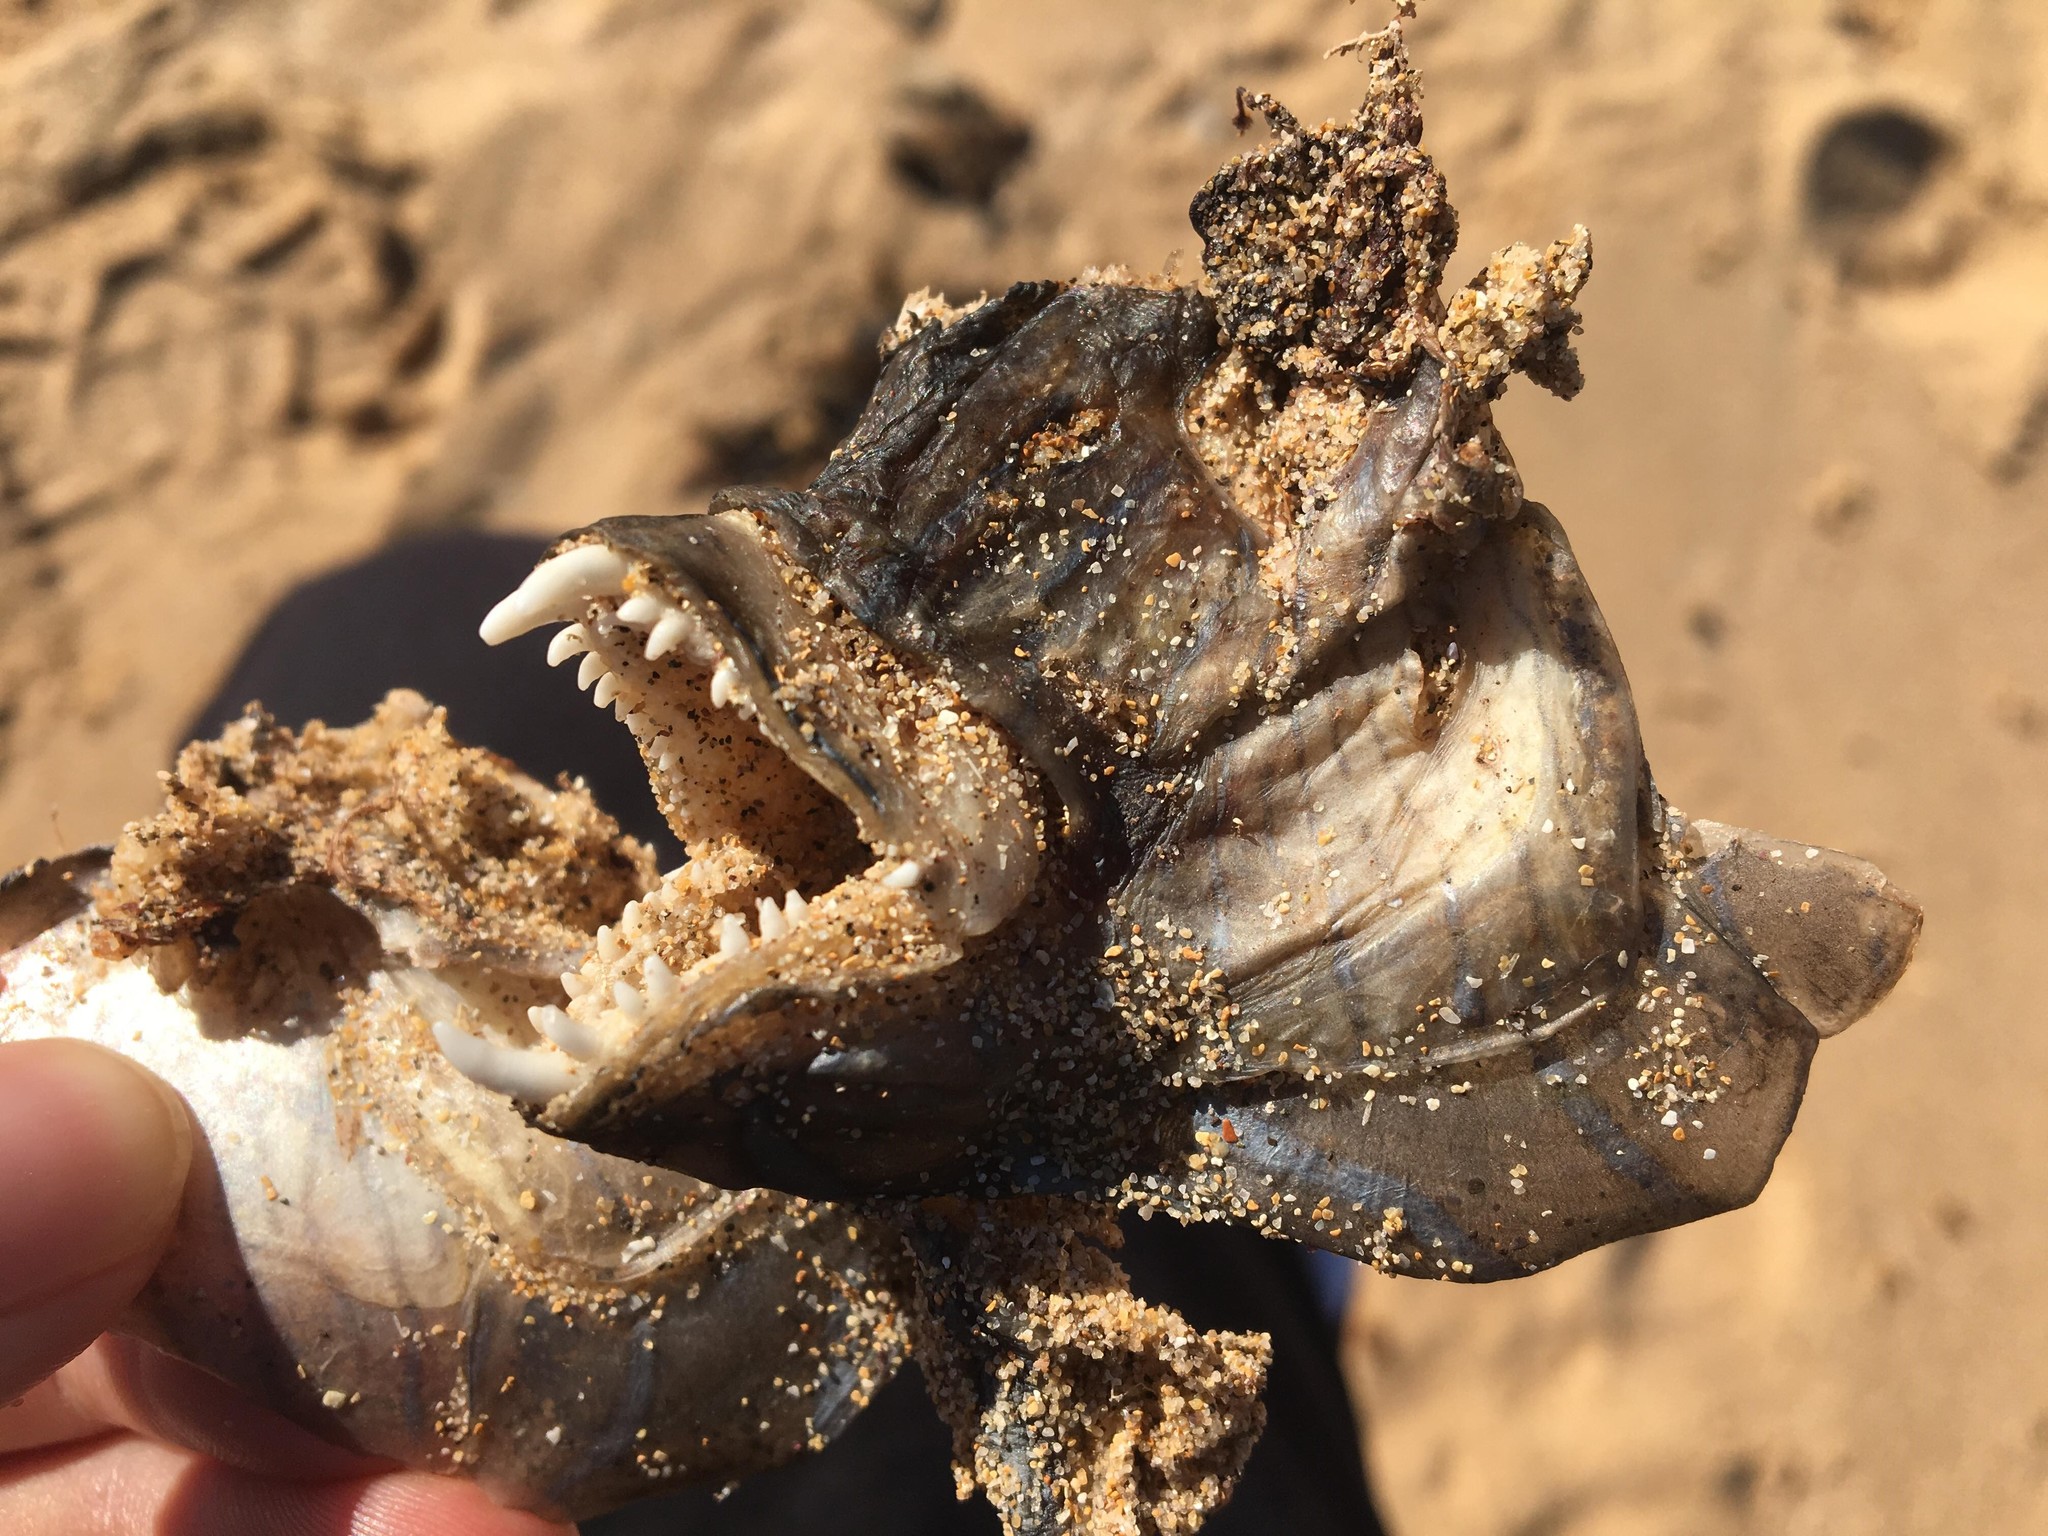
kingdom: Animalia
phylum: Chordata
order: Perciformes
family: Labridae
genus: Ophthalmolepis
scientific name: Ophthalmolepis lineolata
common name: Maori wrasse
